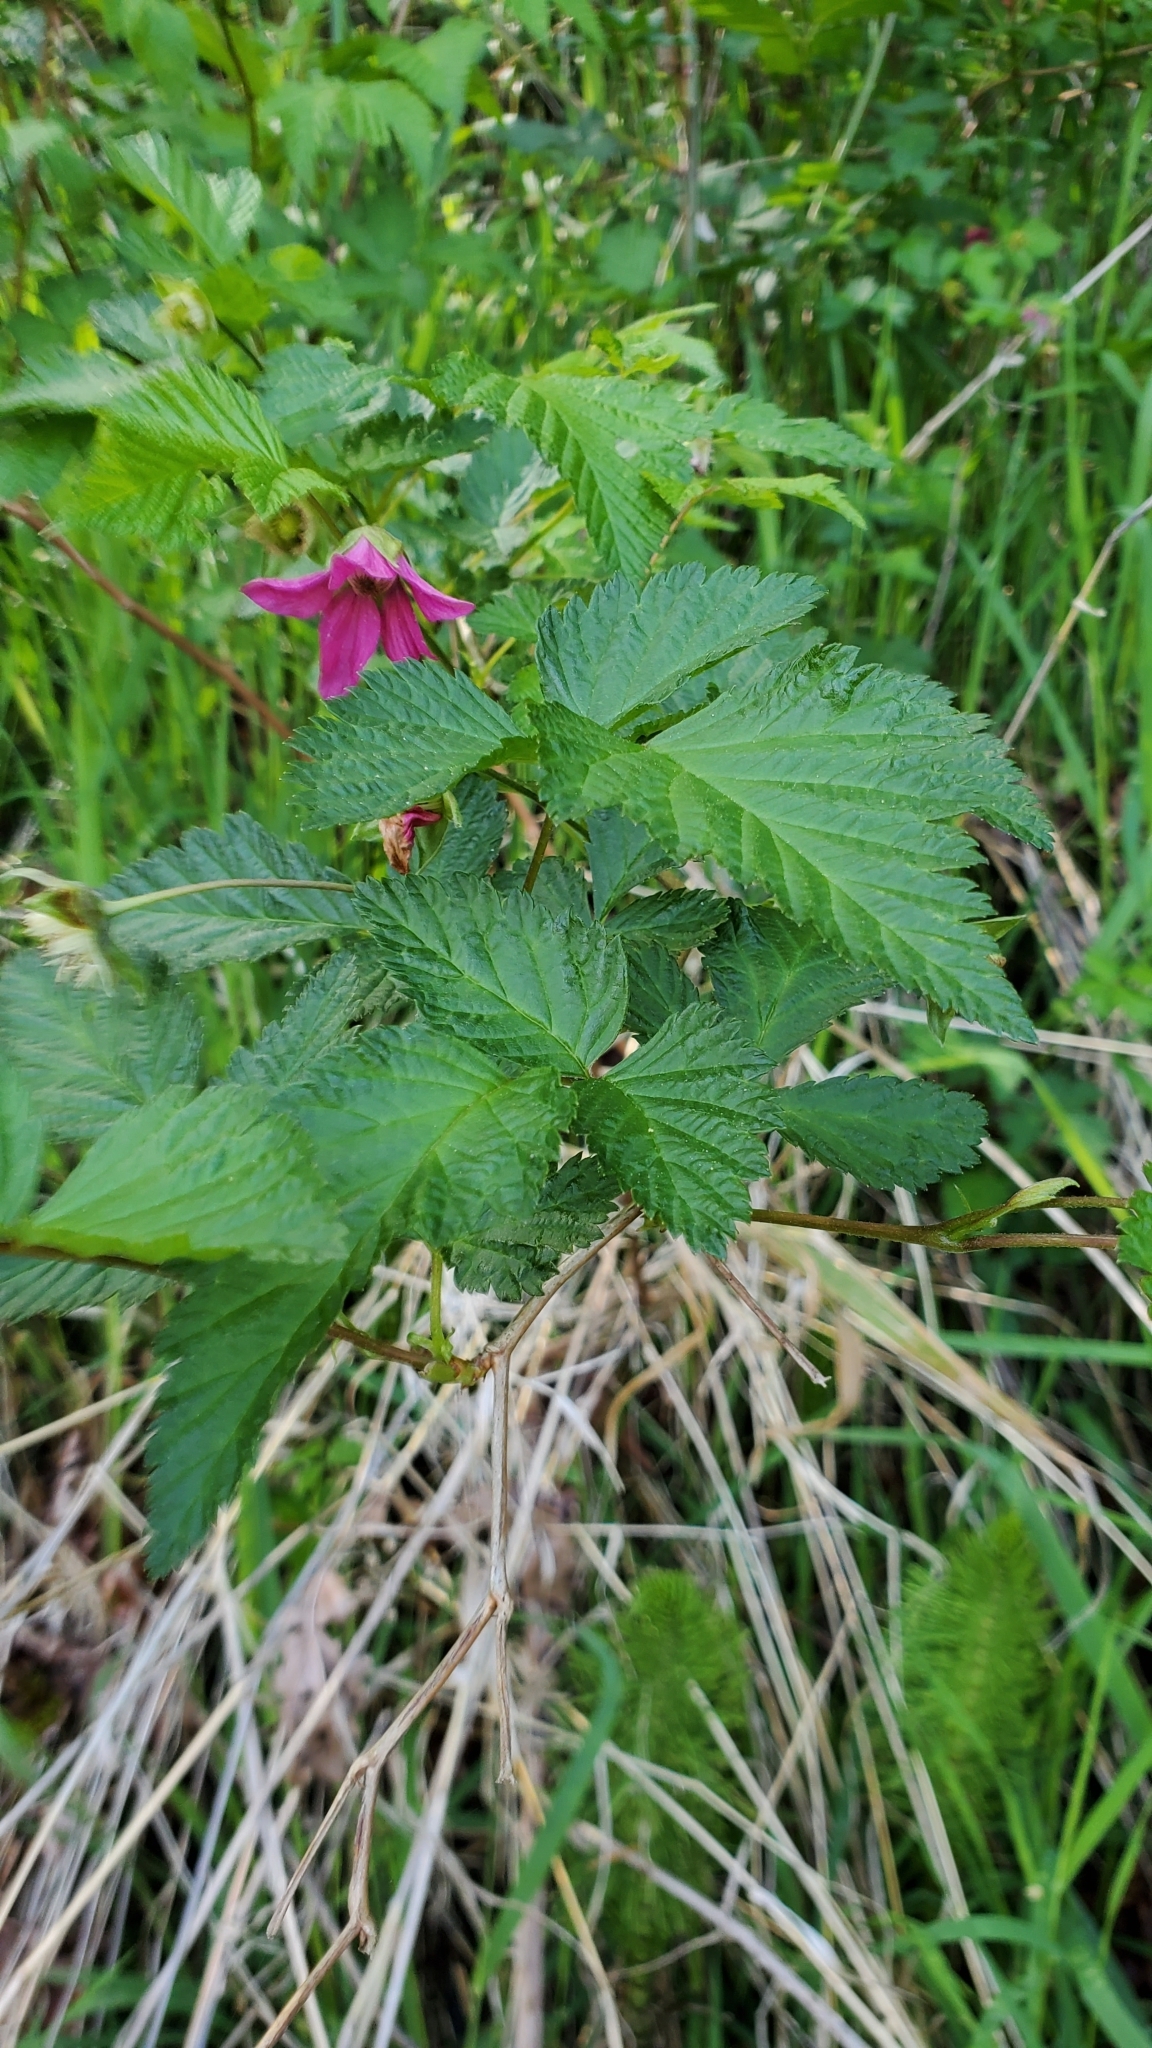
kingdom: Plantae
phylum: Tracheophyta
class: Magnoliopsida
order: Rosales
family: Rosaceae
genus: Rubus
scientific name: Rubus spectabilis
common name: Salmonberry
